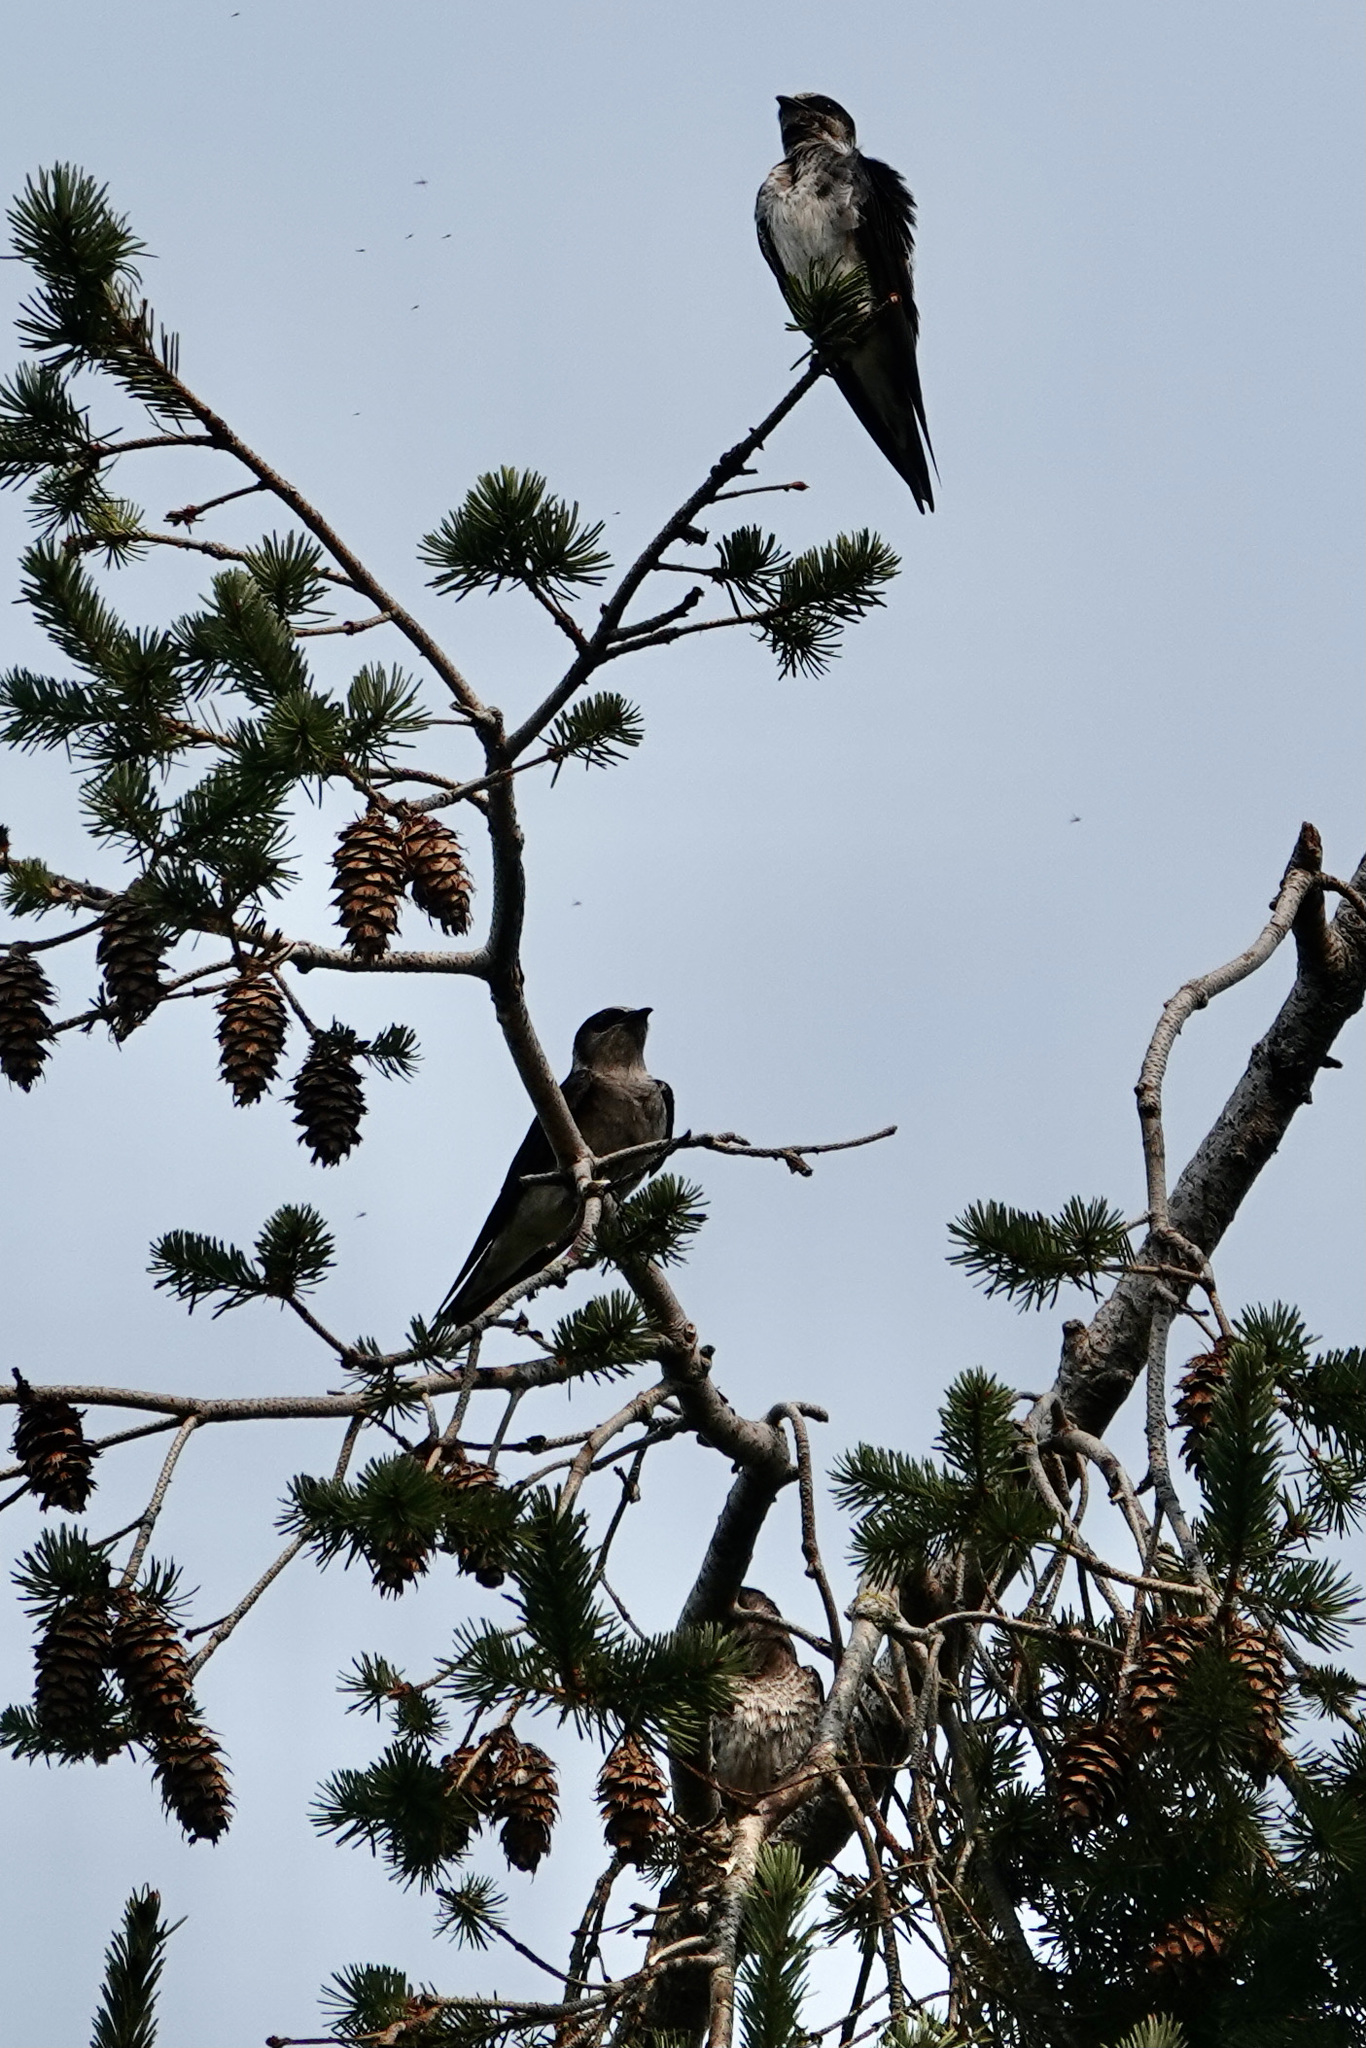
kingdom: Animalia
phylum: Chordata
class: Aves
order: Passeriformes
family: Hirundinidae
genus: Progne
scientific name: Progne subis
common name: Purple martin
